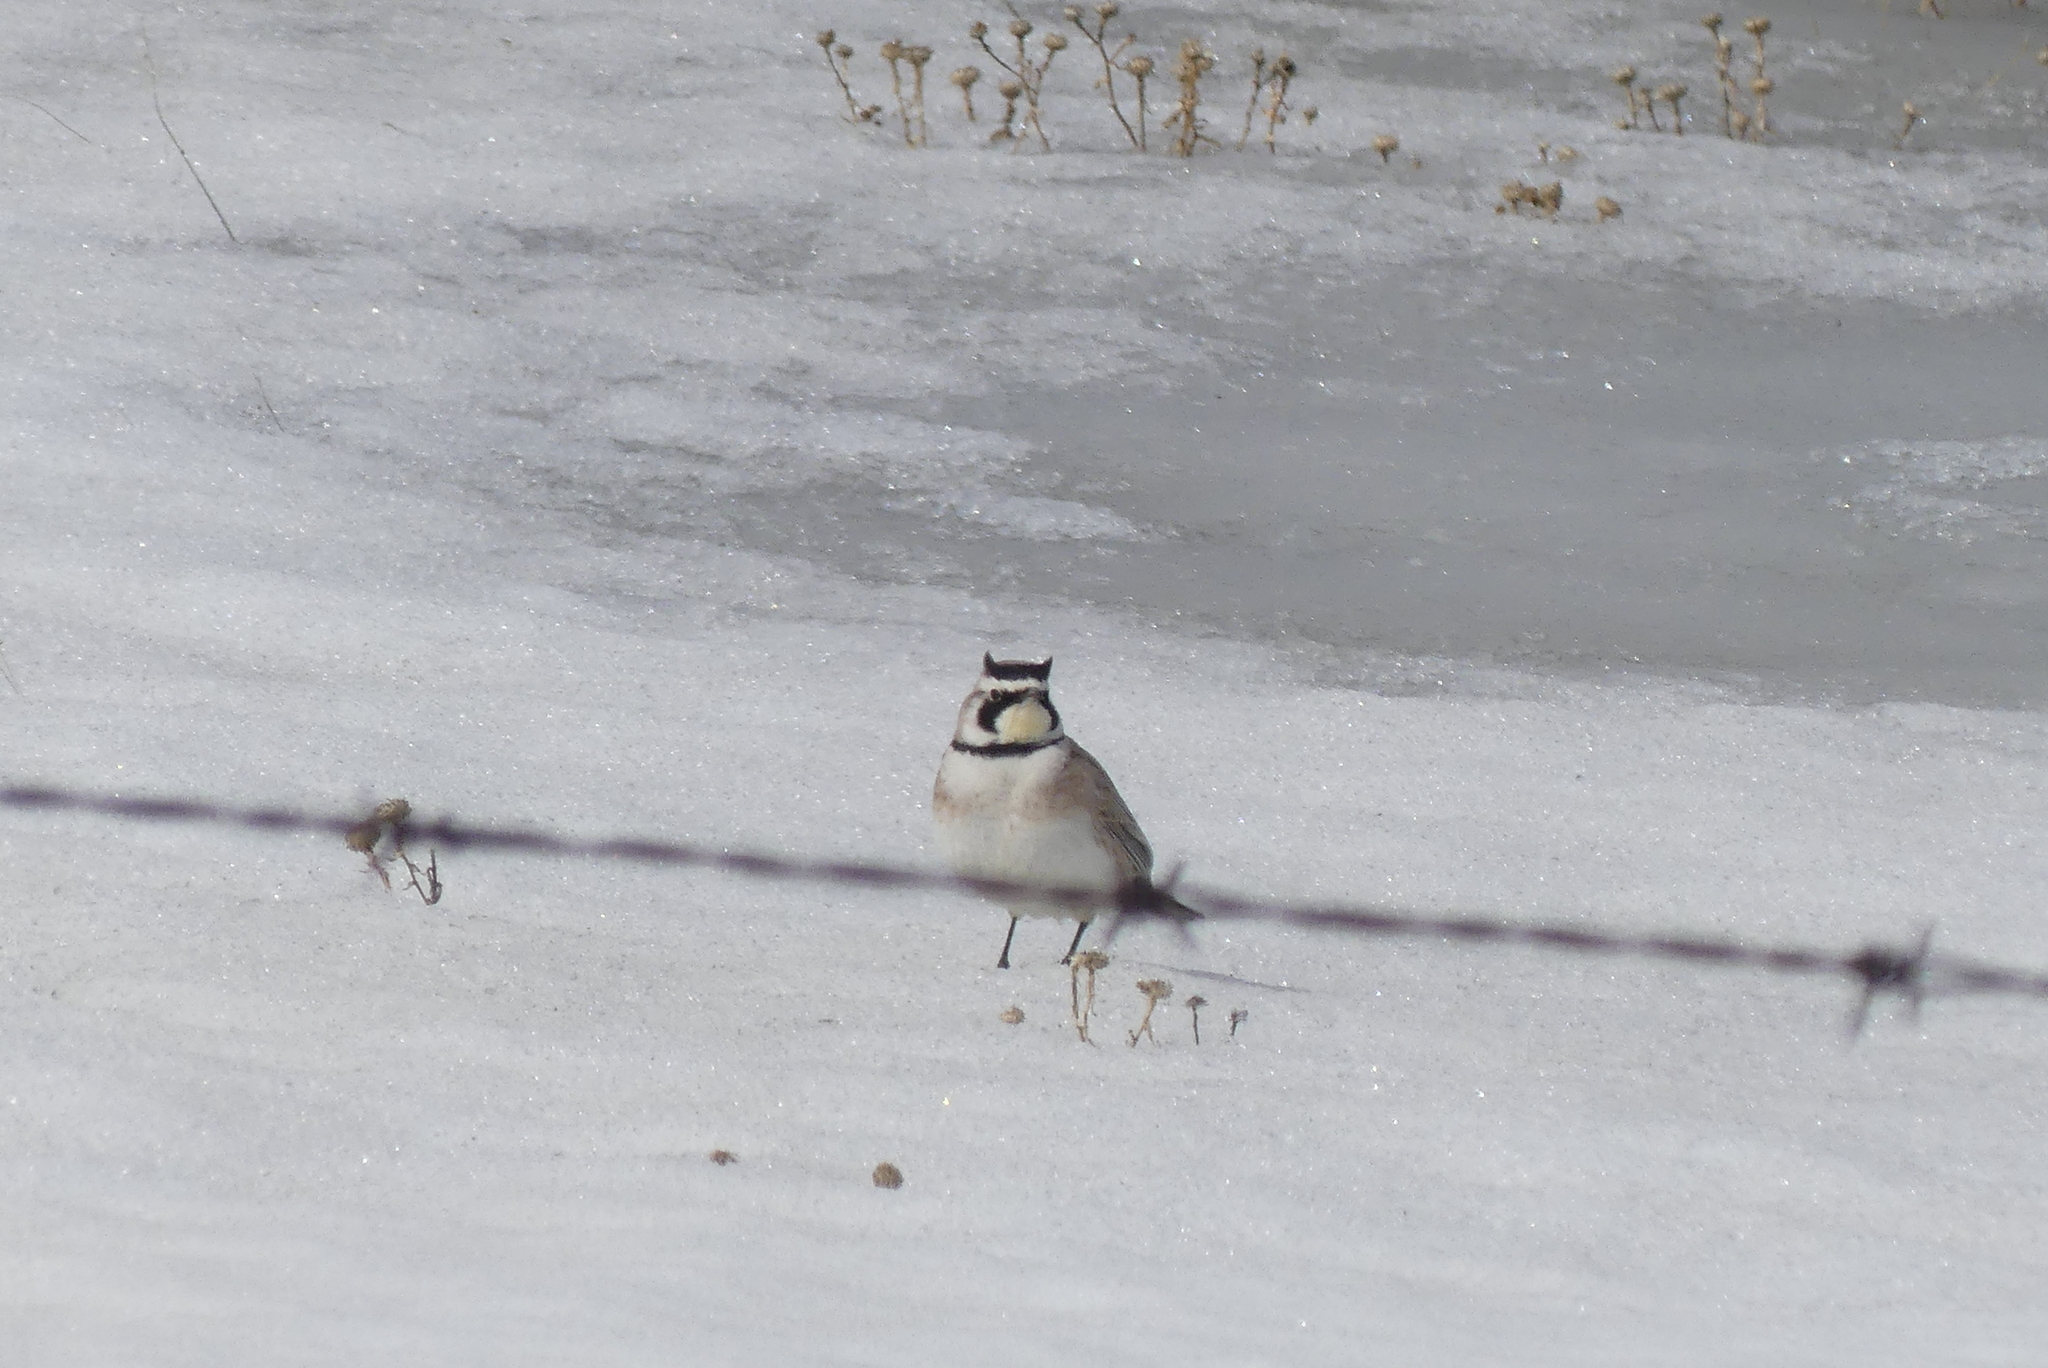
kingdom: Animalia
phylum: Chordata
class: Aves
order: Passeriformes
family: Alaudidae
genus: Eremophila
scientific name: Eremophila alpestris
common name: Horned lark
